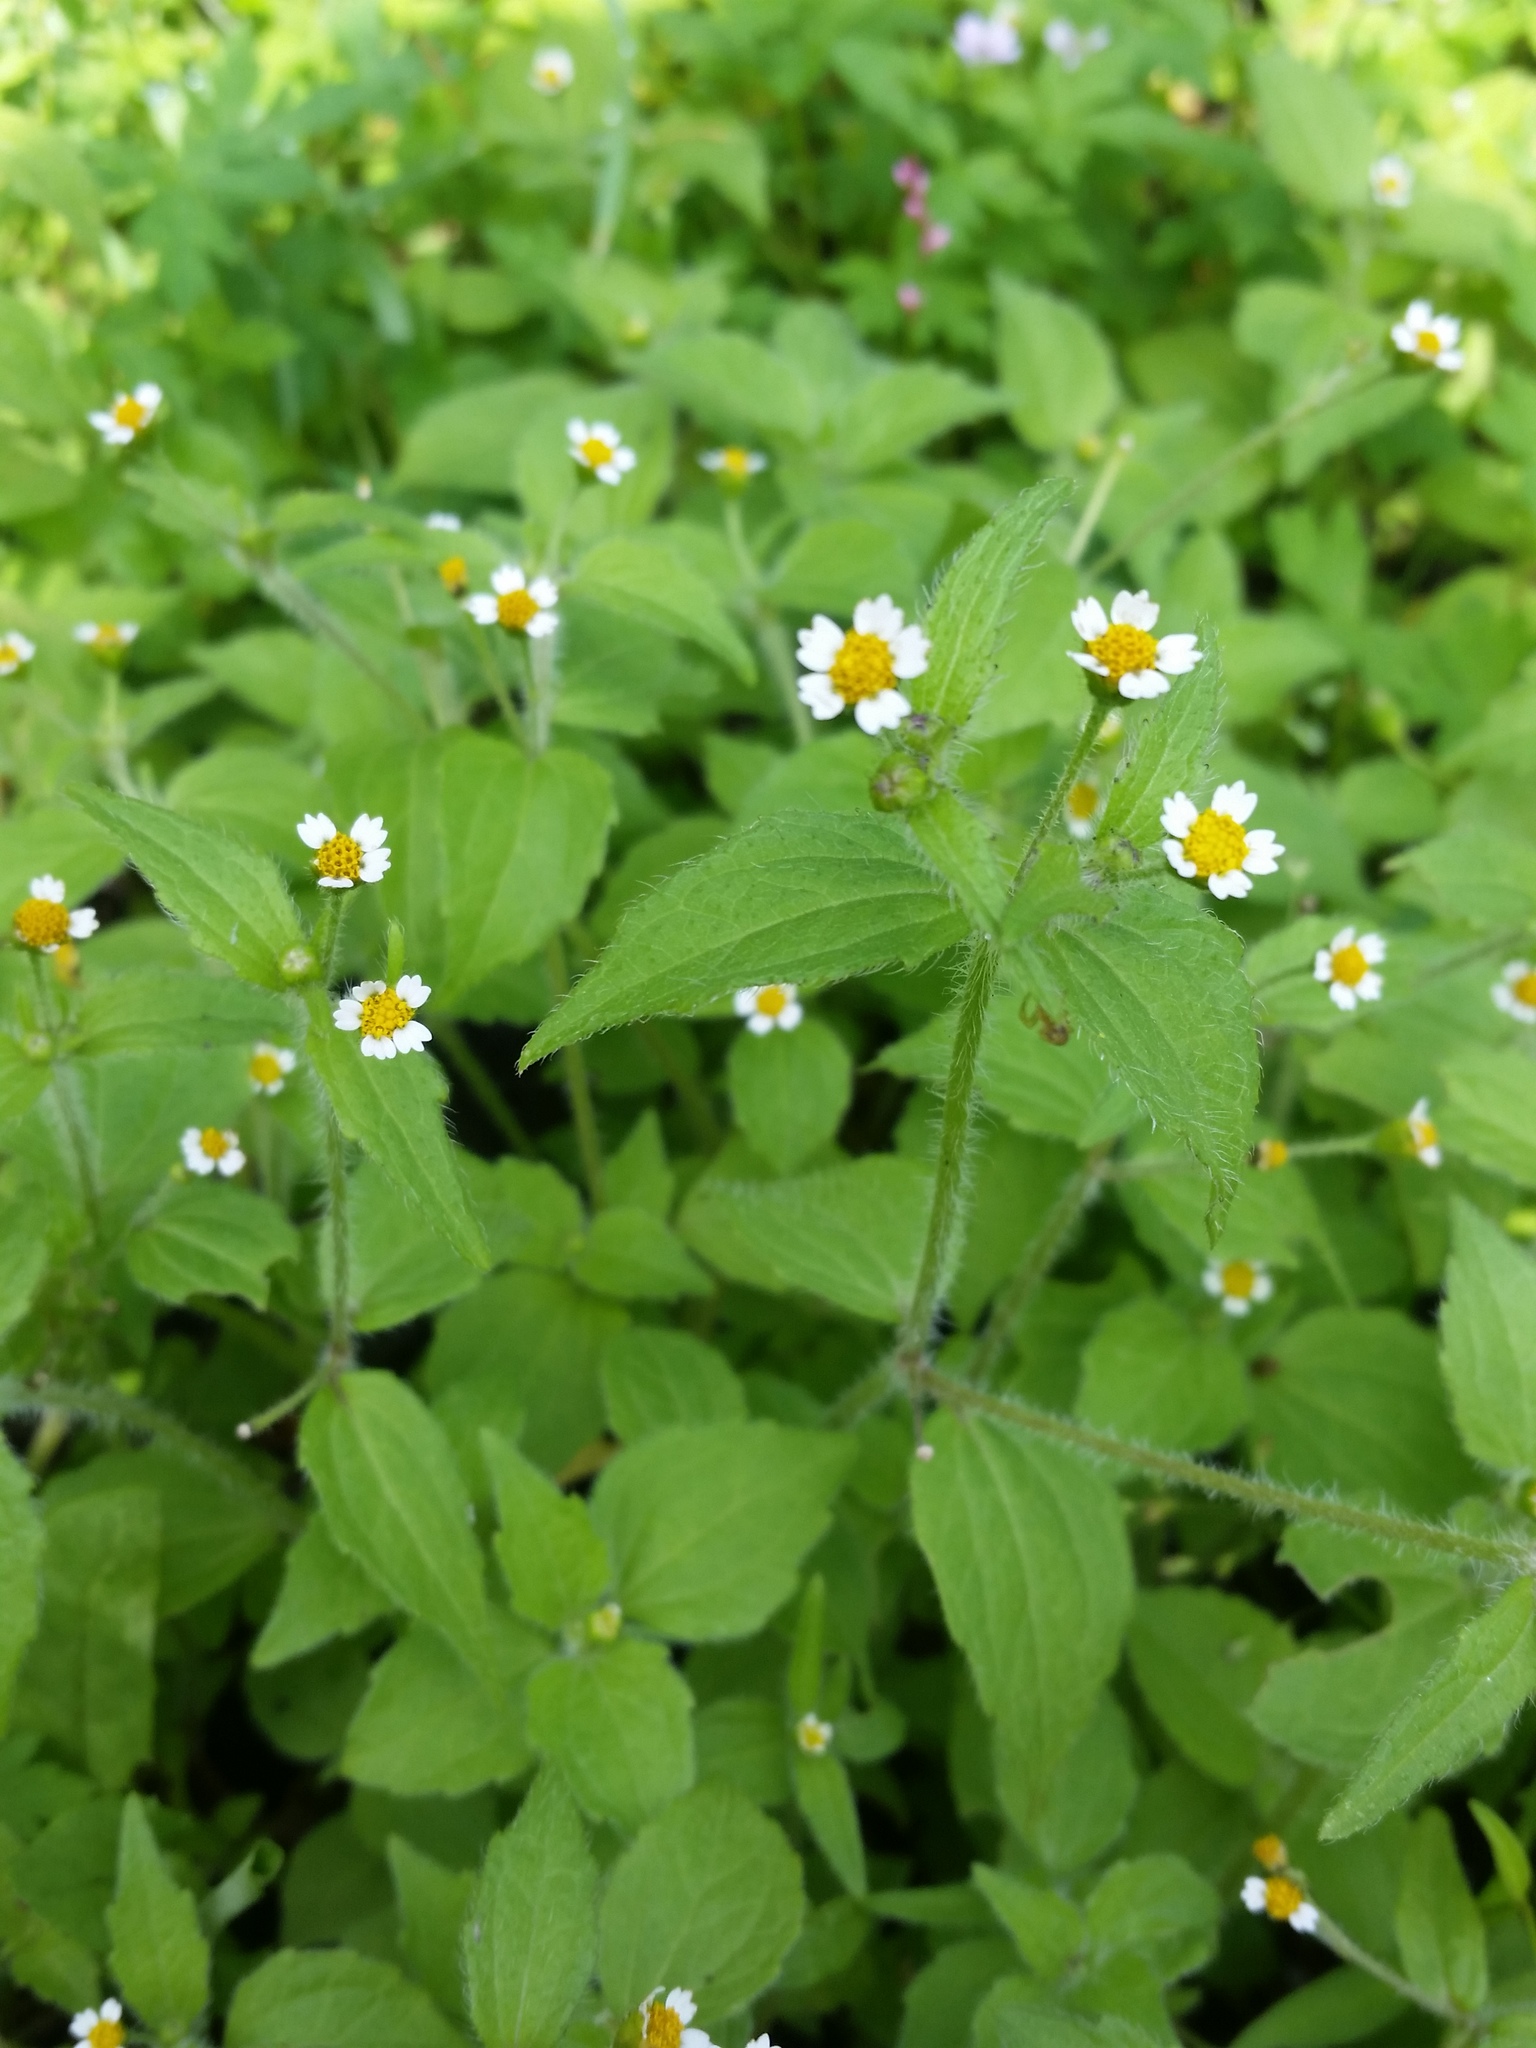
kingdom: Plantae
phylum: Tracheophyta
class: Magnoliopsida
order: Asterales
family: Asteraceae
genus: Galinsoga
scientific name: Galinsoga quadriradiata
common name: Shaggy soldier
